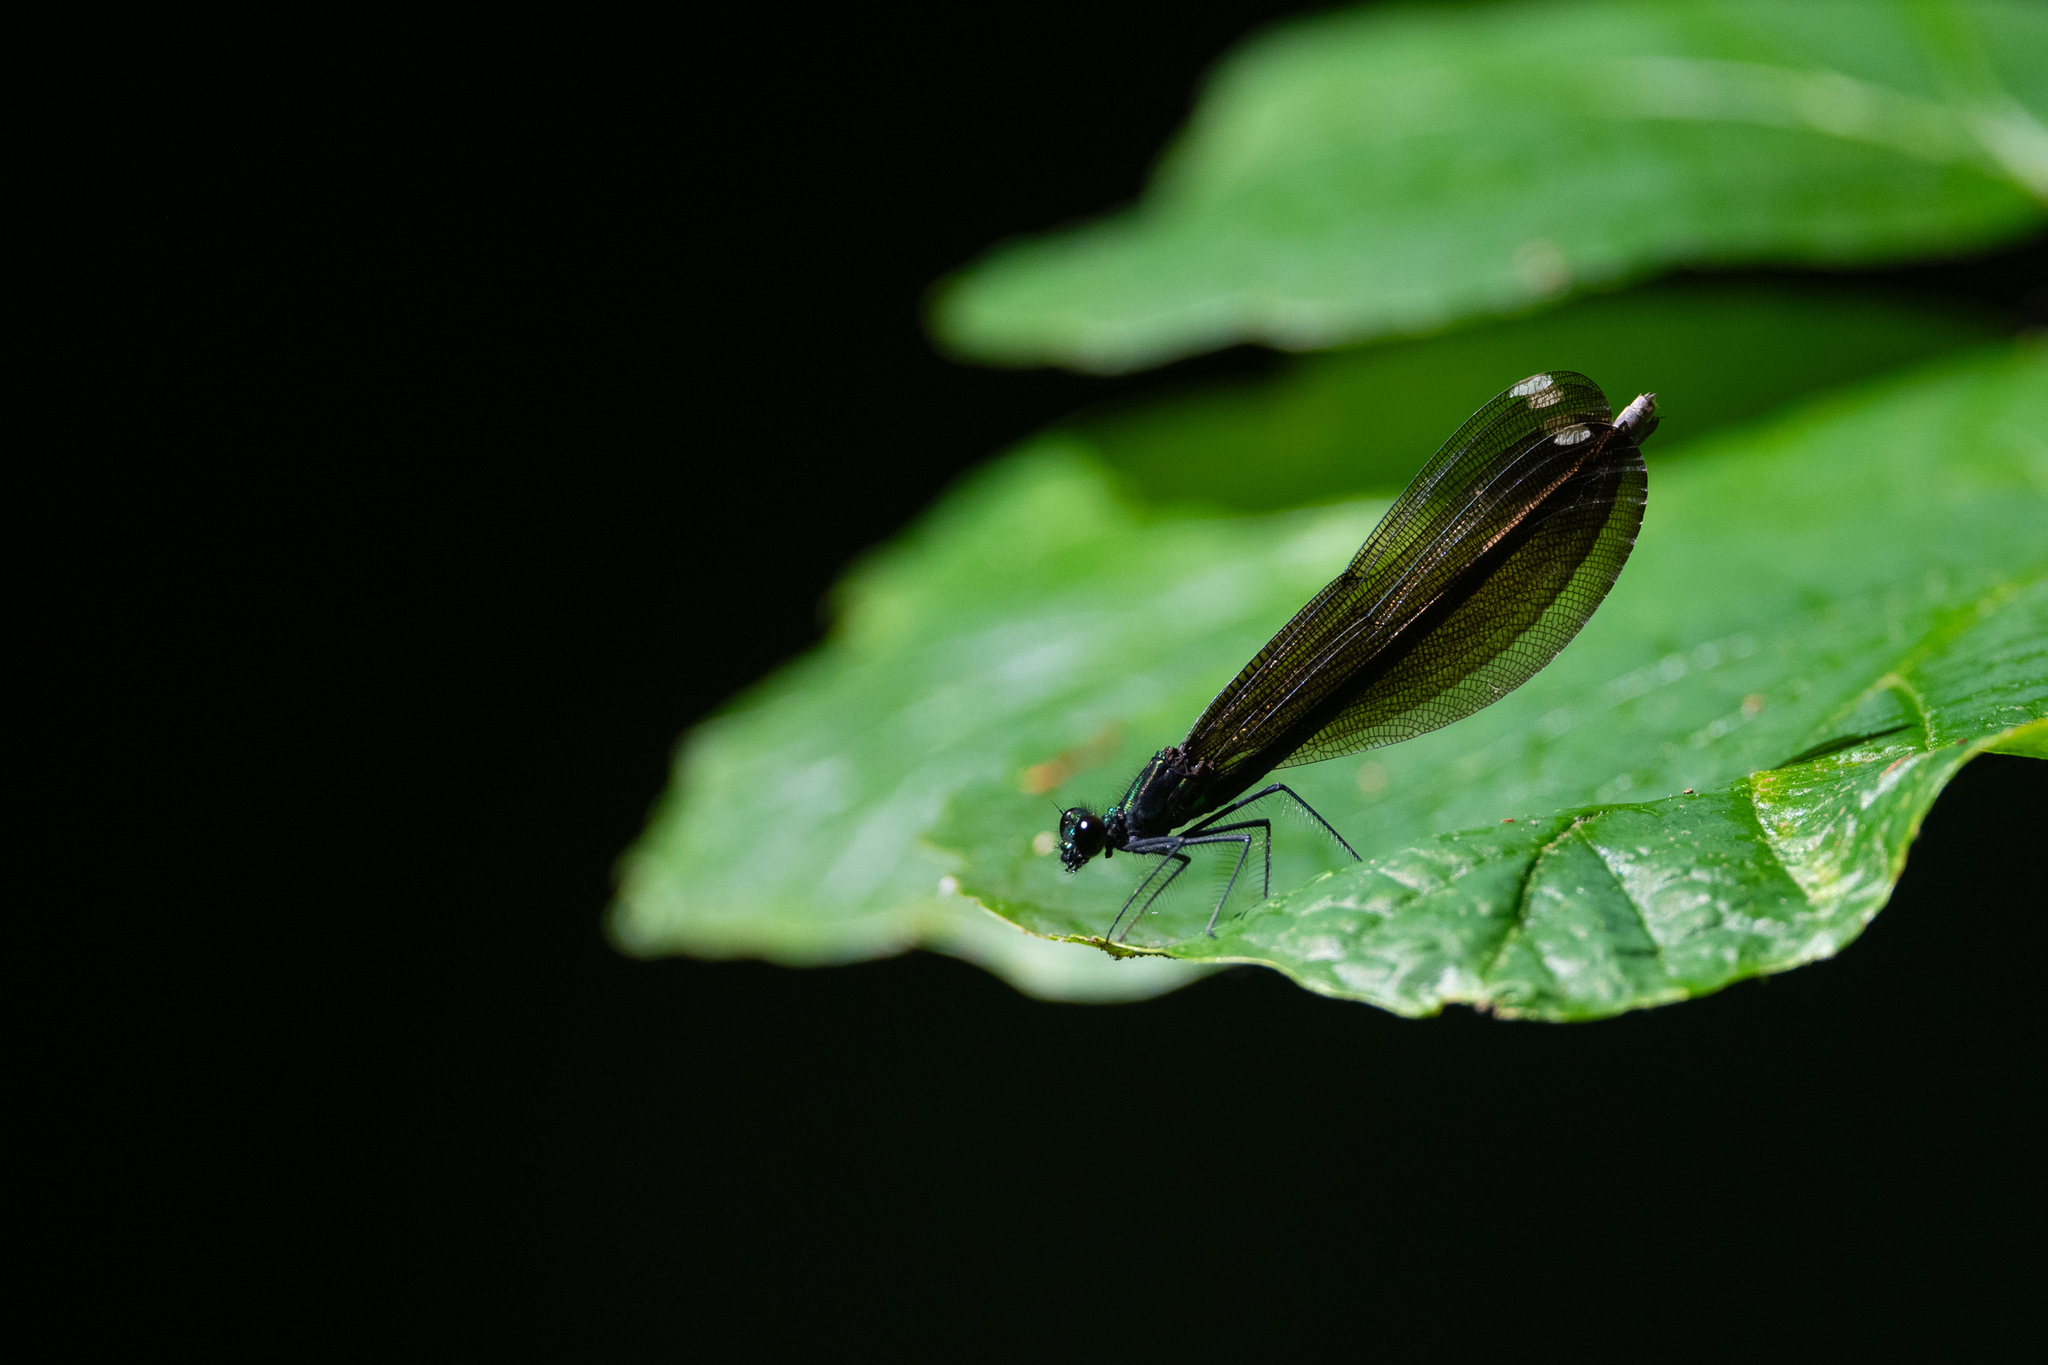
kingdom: Animalia
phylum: Arthropoda
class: Insecta
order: Odonata
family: Calopterygidae
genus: Calopteryx
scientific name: Calopteryx maculata
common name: Ebony jewelwing
